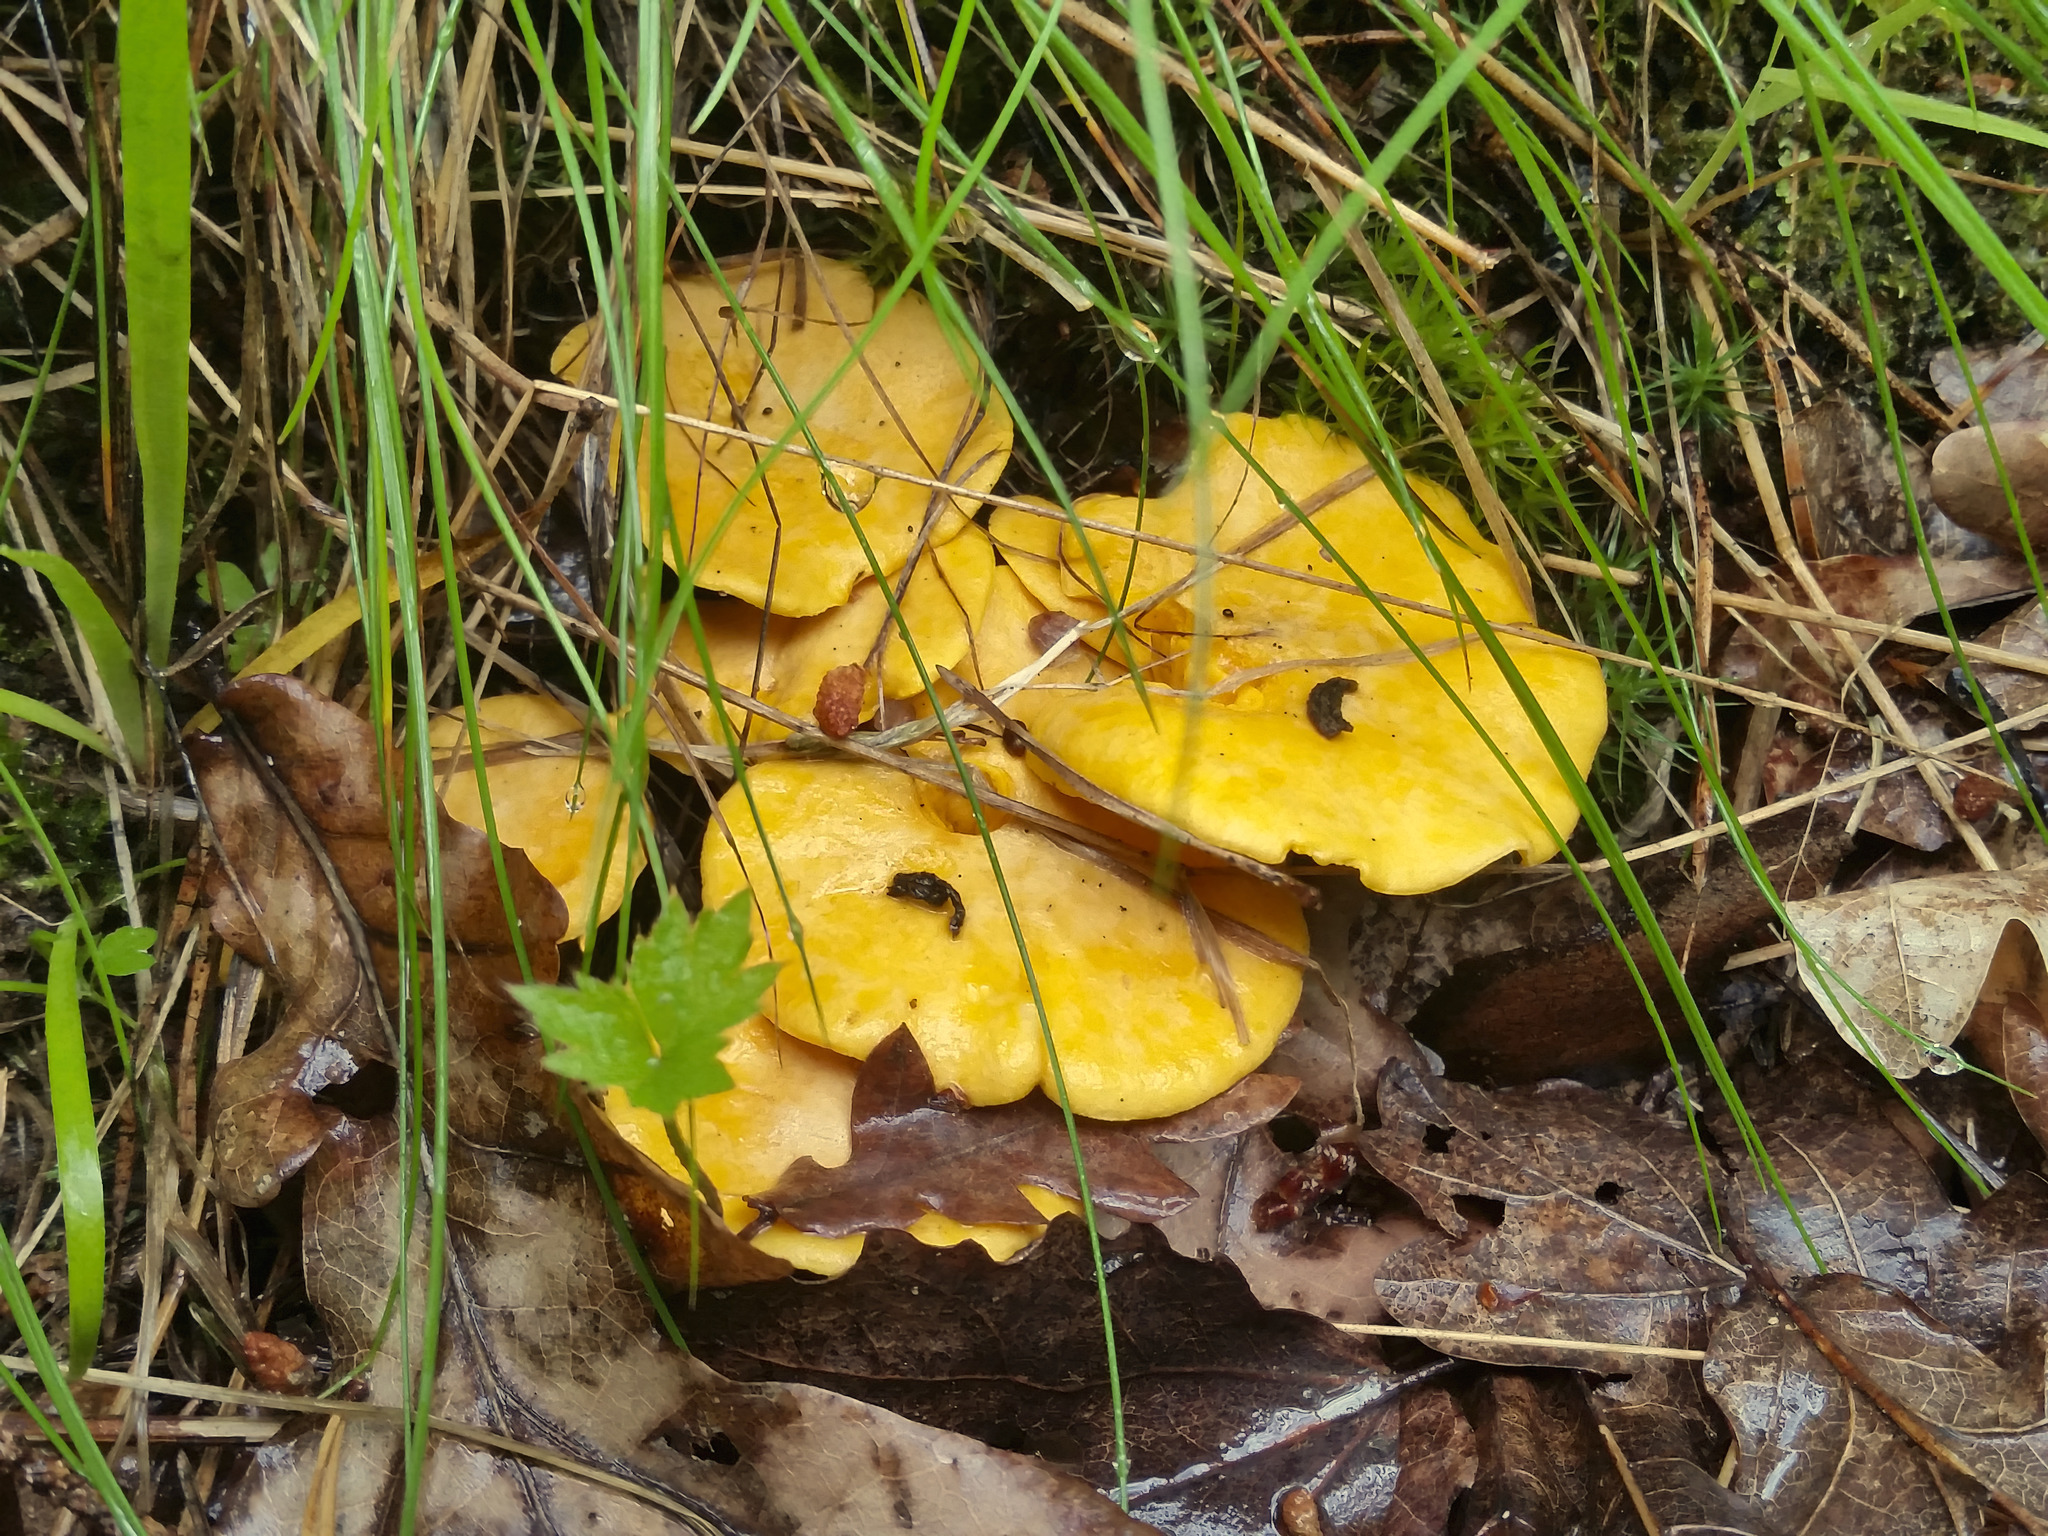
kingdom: Fungi
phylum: Basidiomycota
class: Agaricomycetes
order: Cantharellales
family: Hydnaceae
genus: Cantharellus
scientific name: Cantharellus cibarius
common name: Chanterelle
